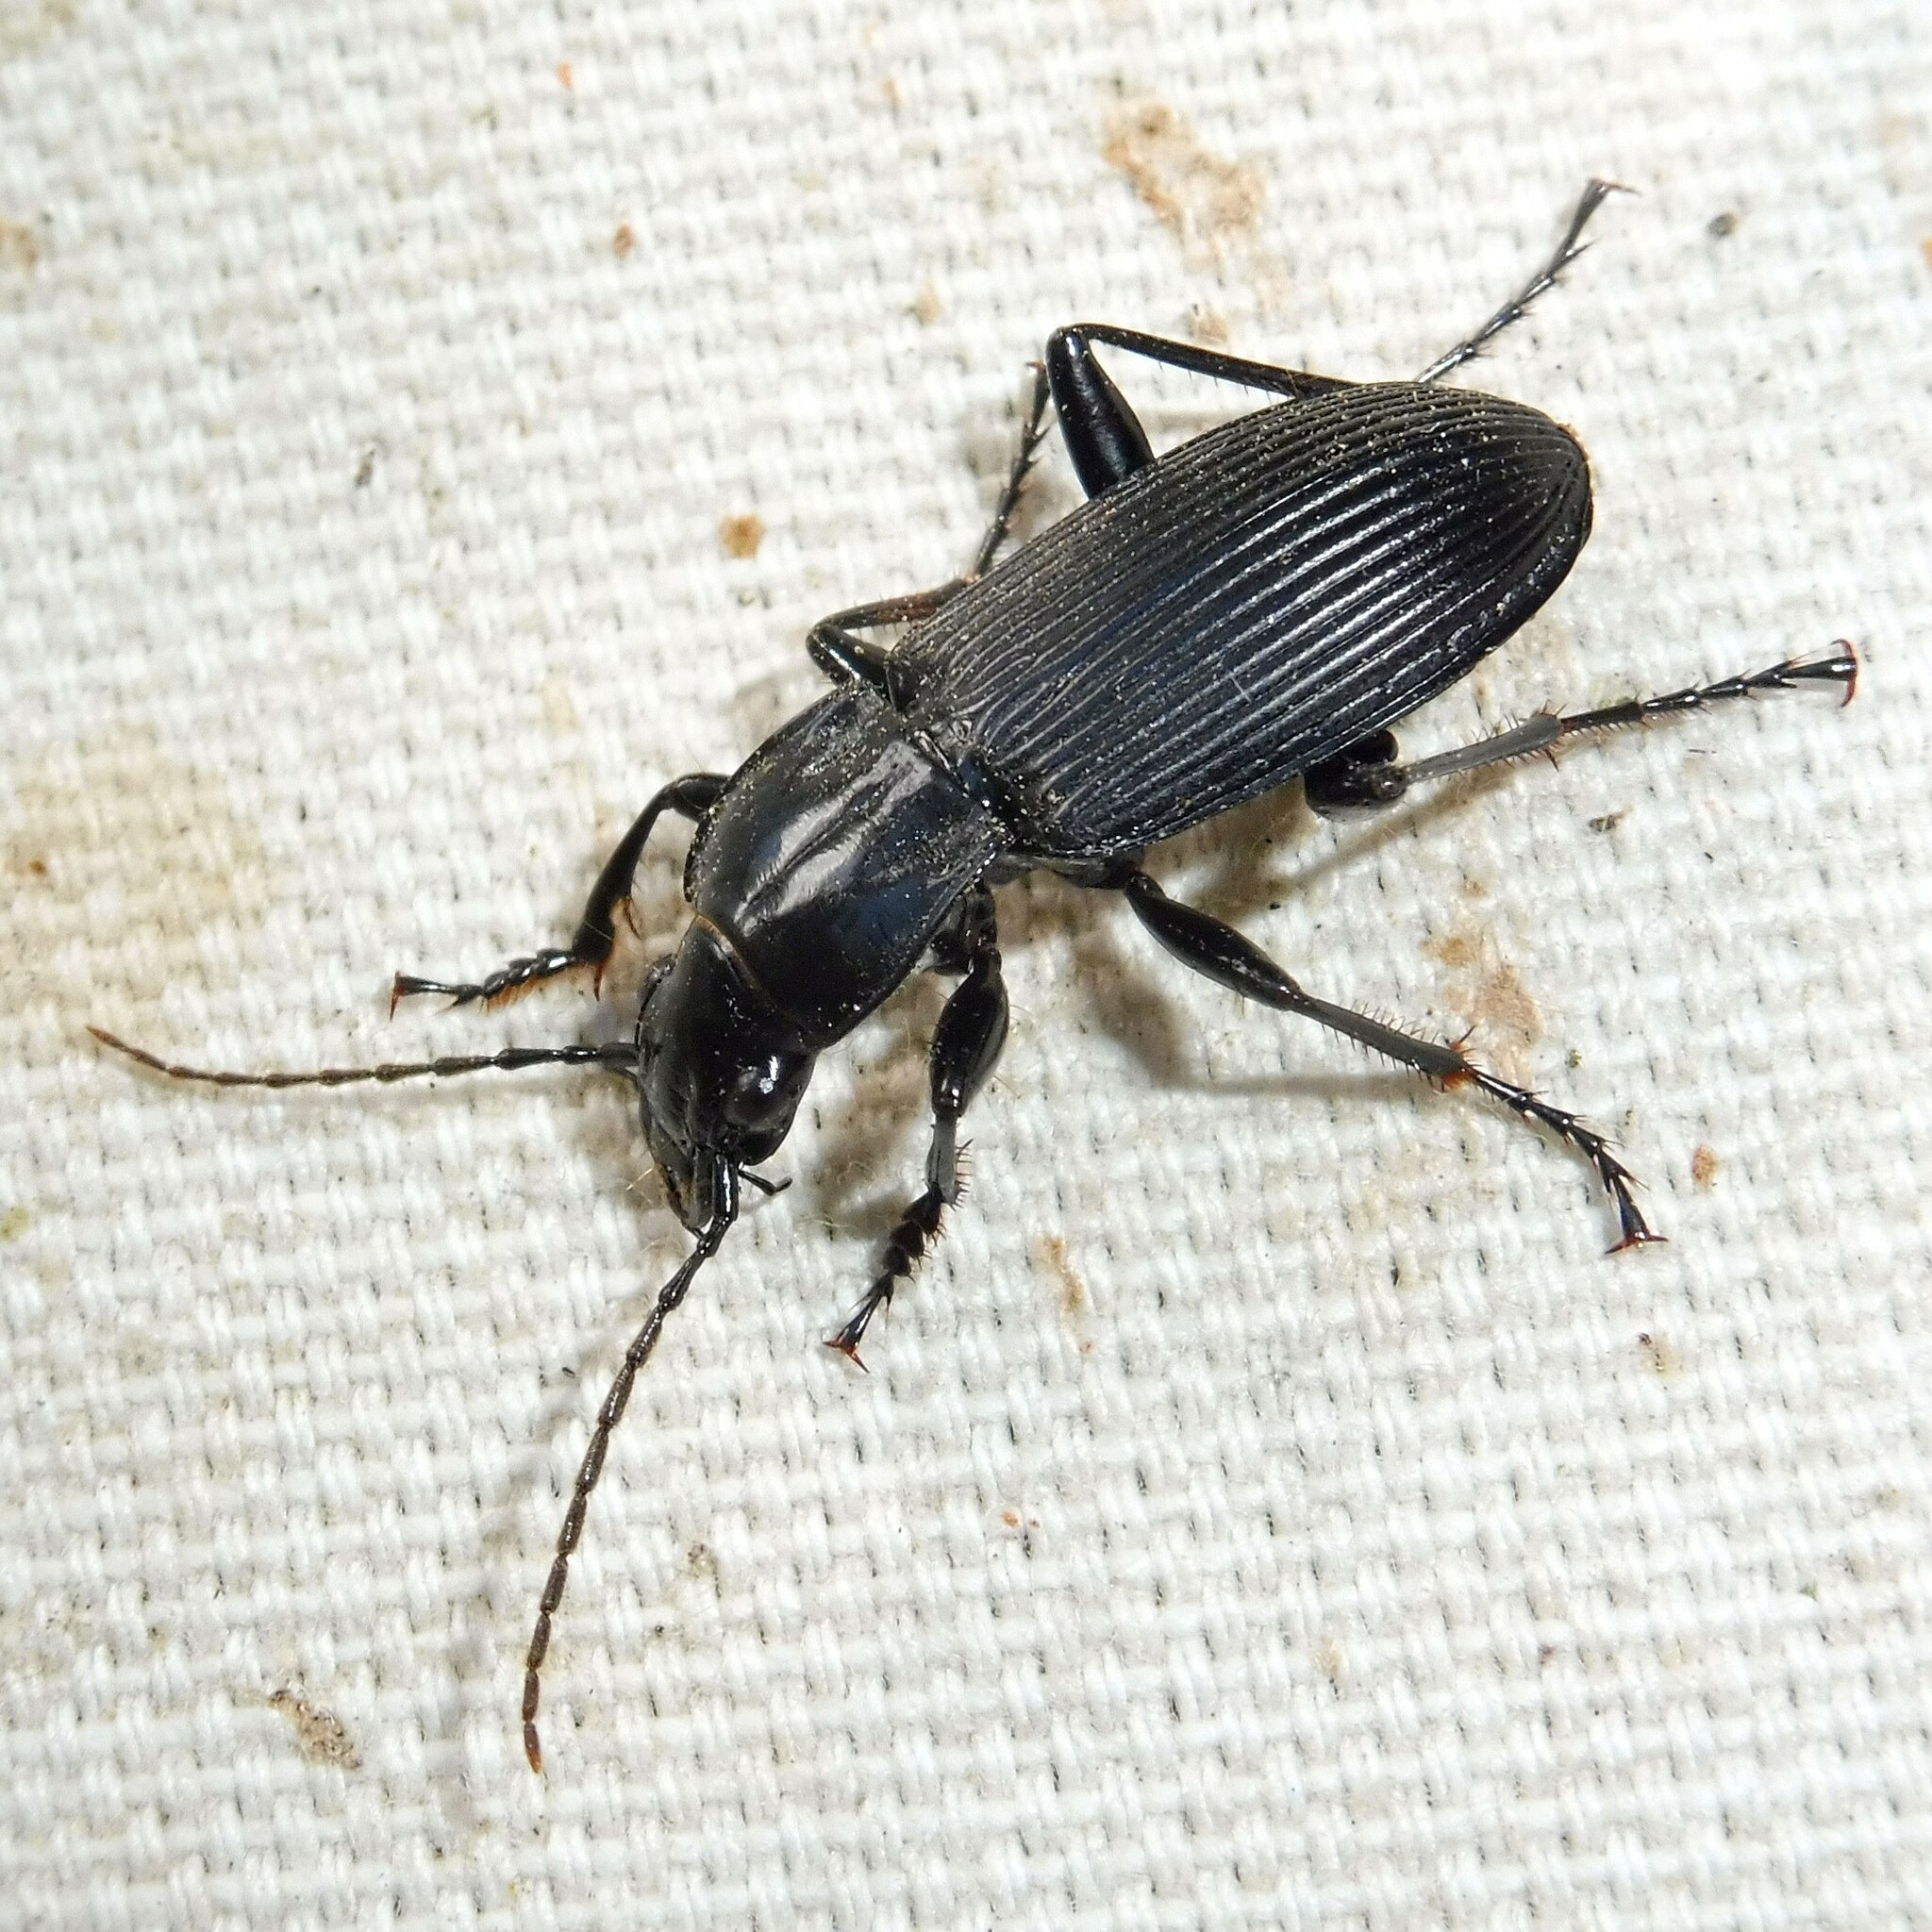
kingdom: Animalia
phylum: Arthropoda
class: Insecta
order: Coleoptera
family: Carabidae
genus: Pterostichus
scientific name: Pterostichus niger
